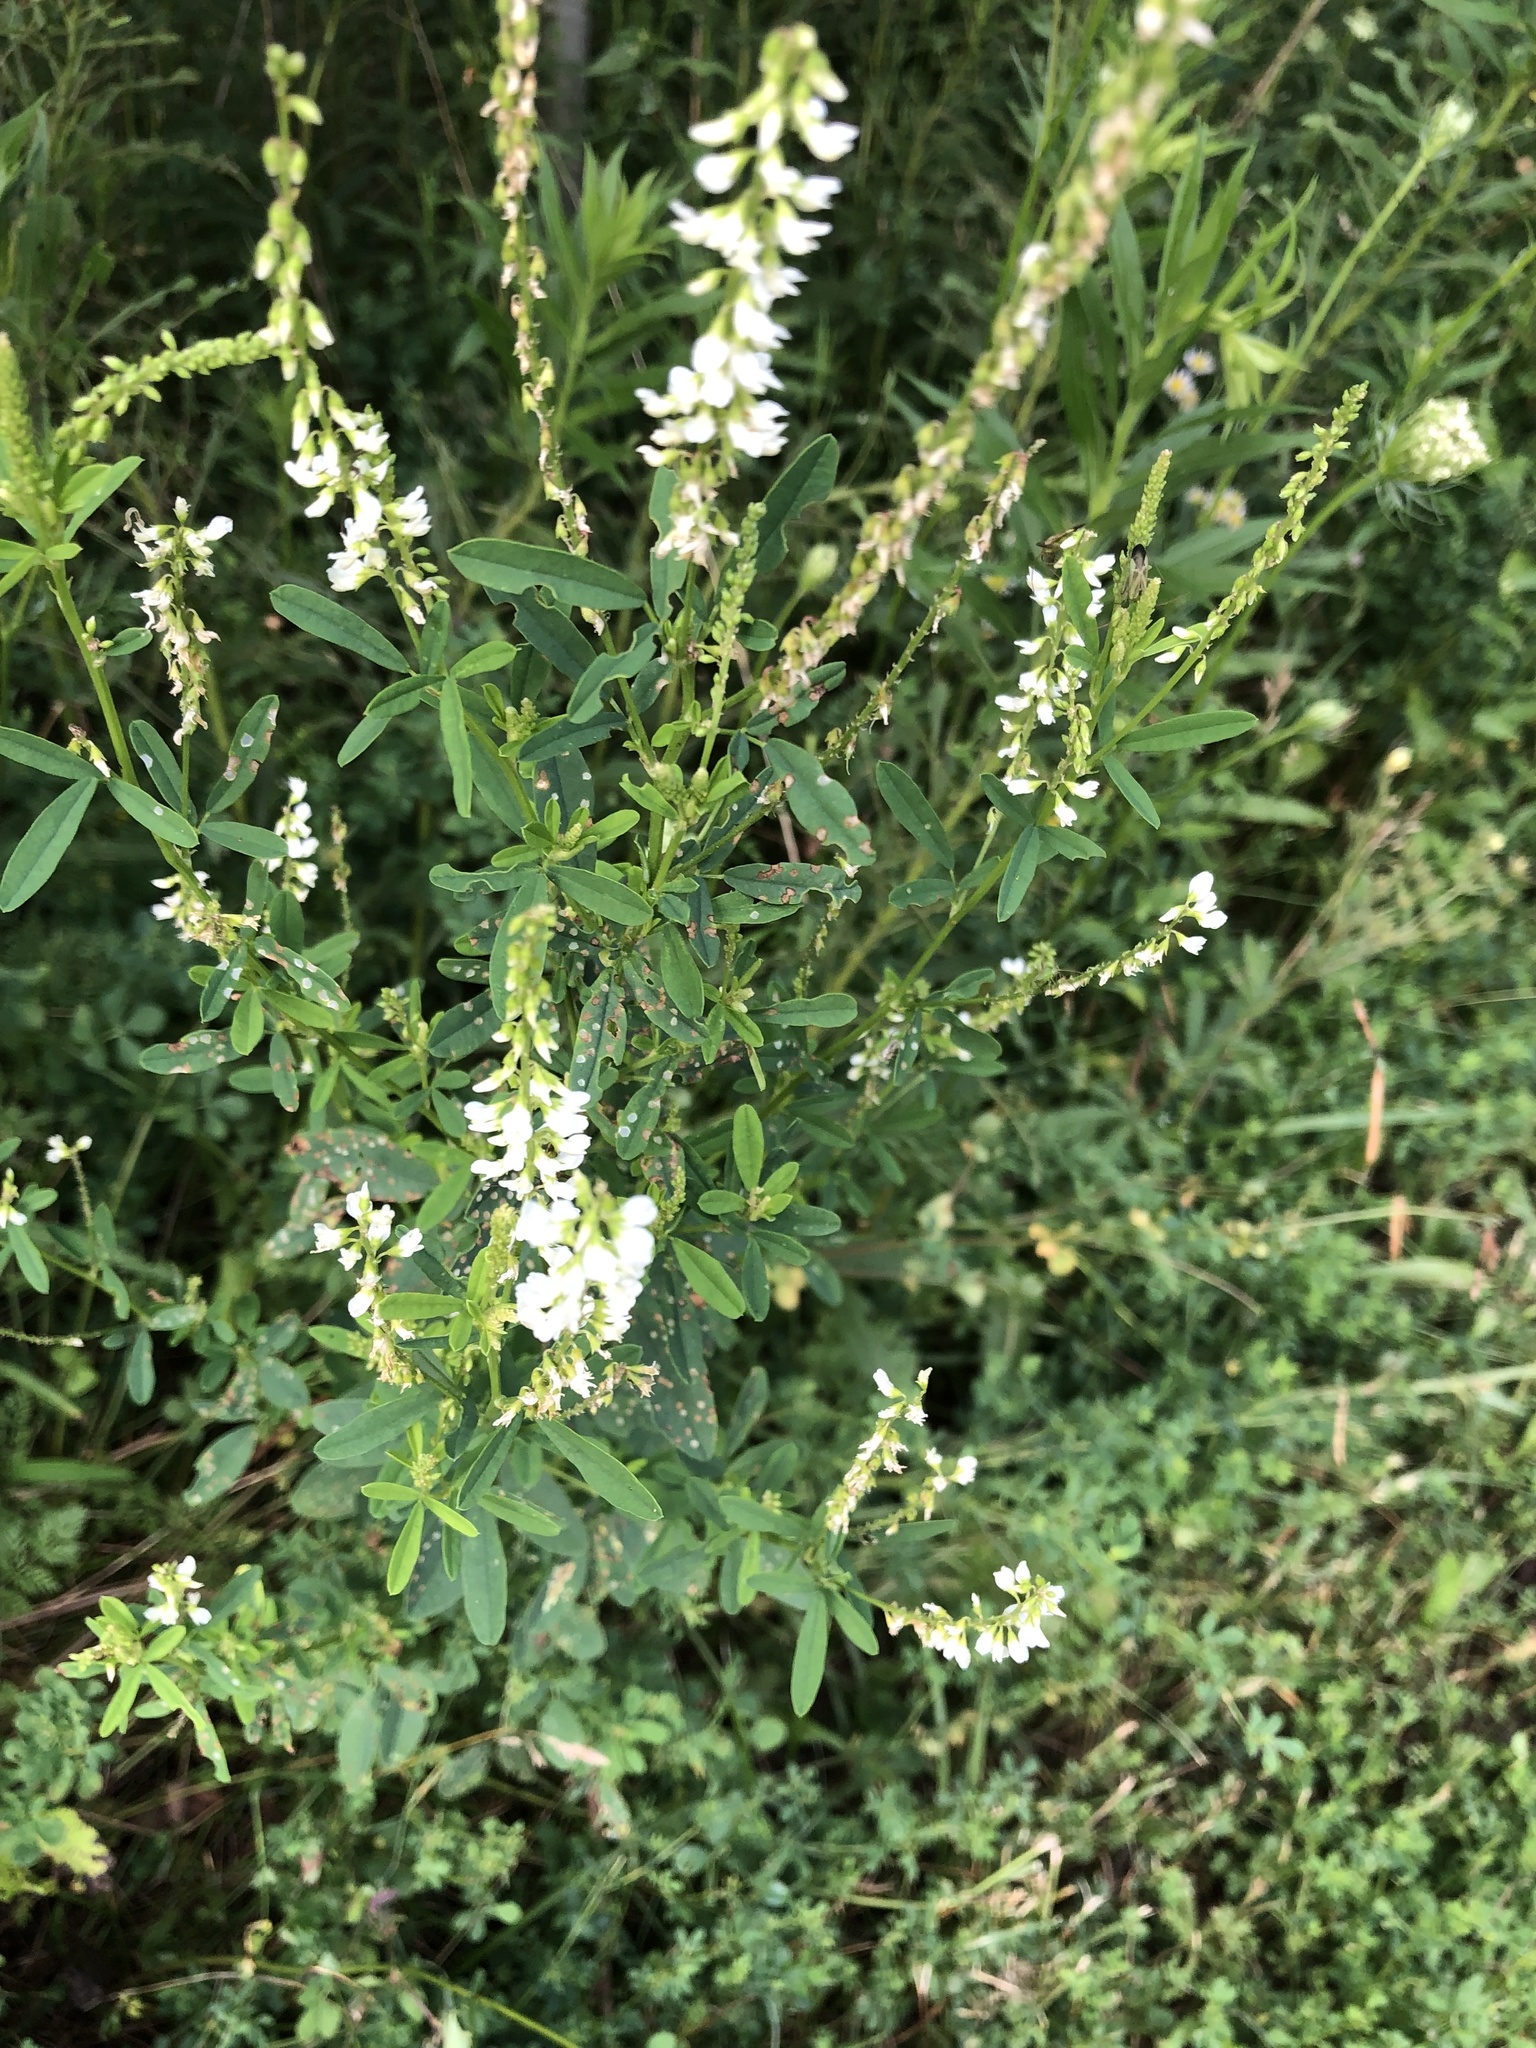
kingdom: Plantae
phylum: Tracheophyta
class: Magnoliopsida
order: Fabales
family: Fabaceae
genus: Melilotus
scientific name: Melilotus albus
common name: White melilot
